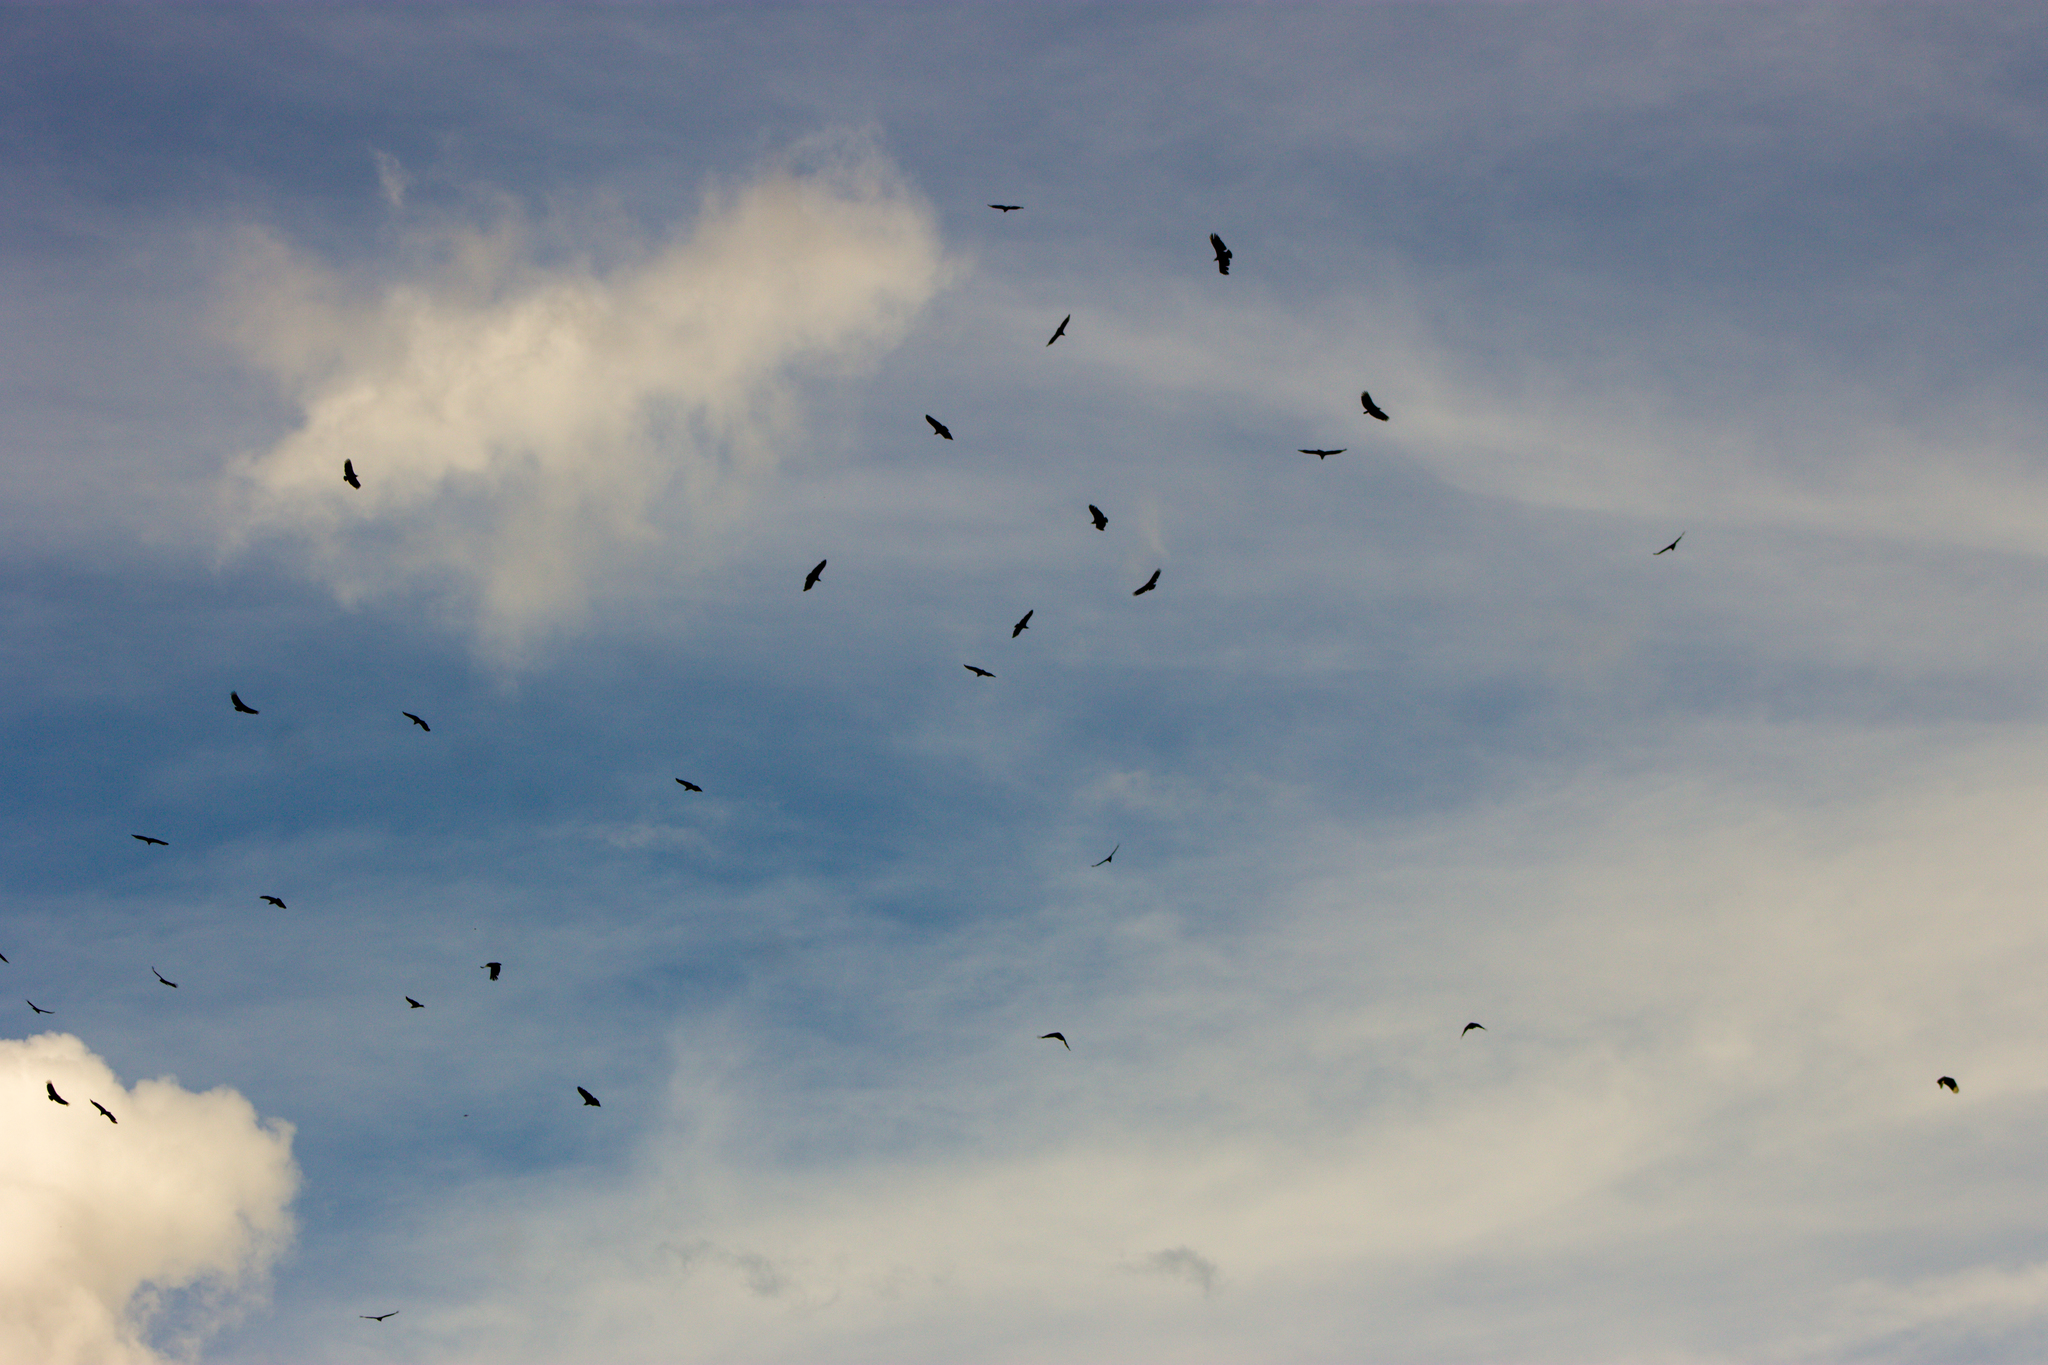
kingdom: Animalia
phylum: Chordata
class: Aves
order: Accipitriformes
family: Cathartidae
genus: Coragyps
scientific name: Coragyps atratus
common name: Black vulture
